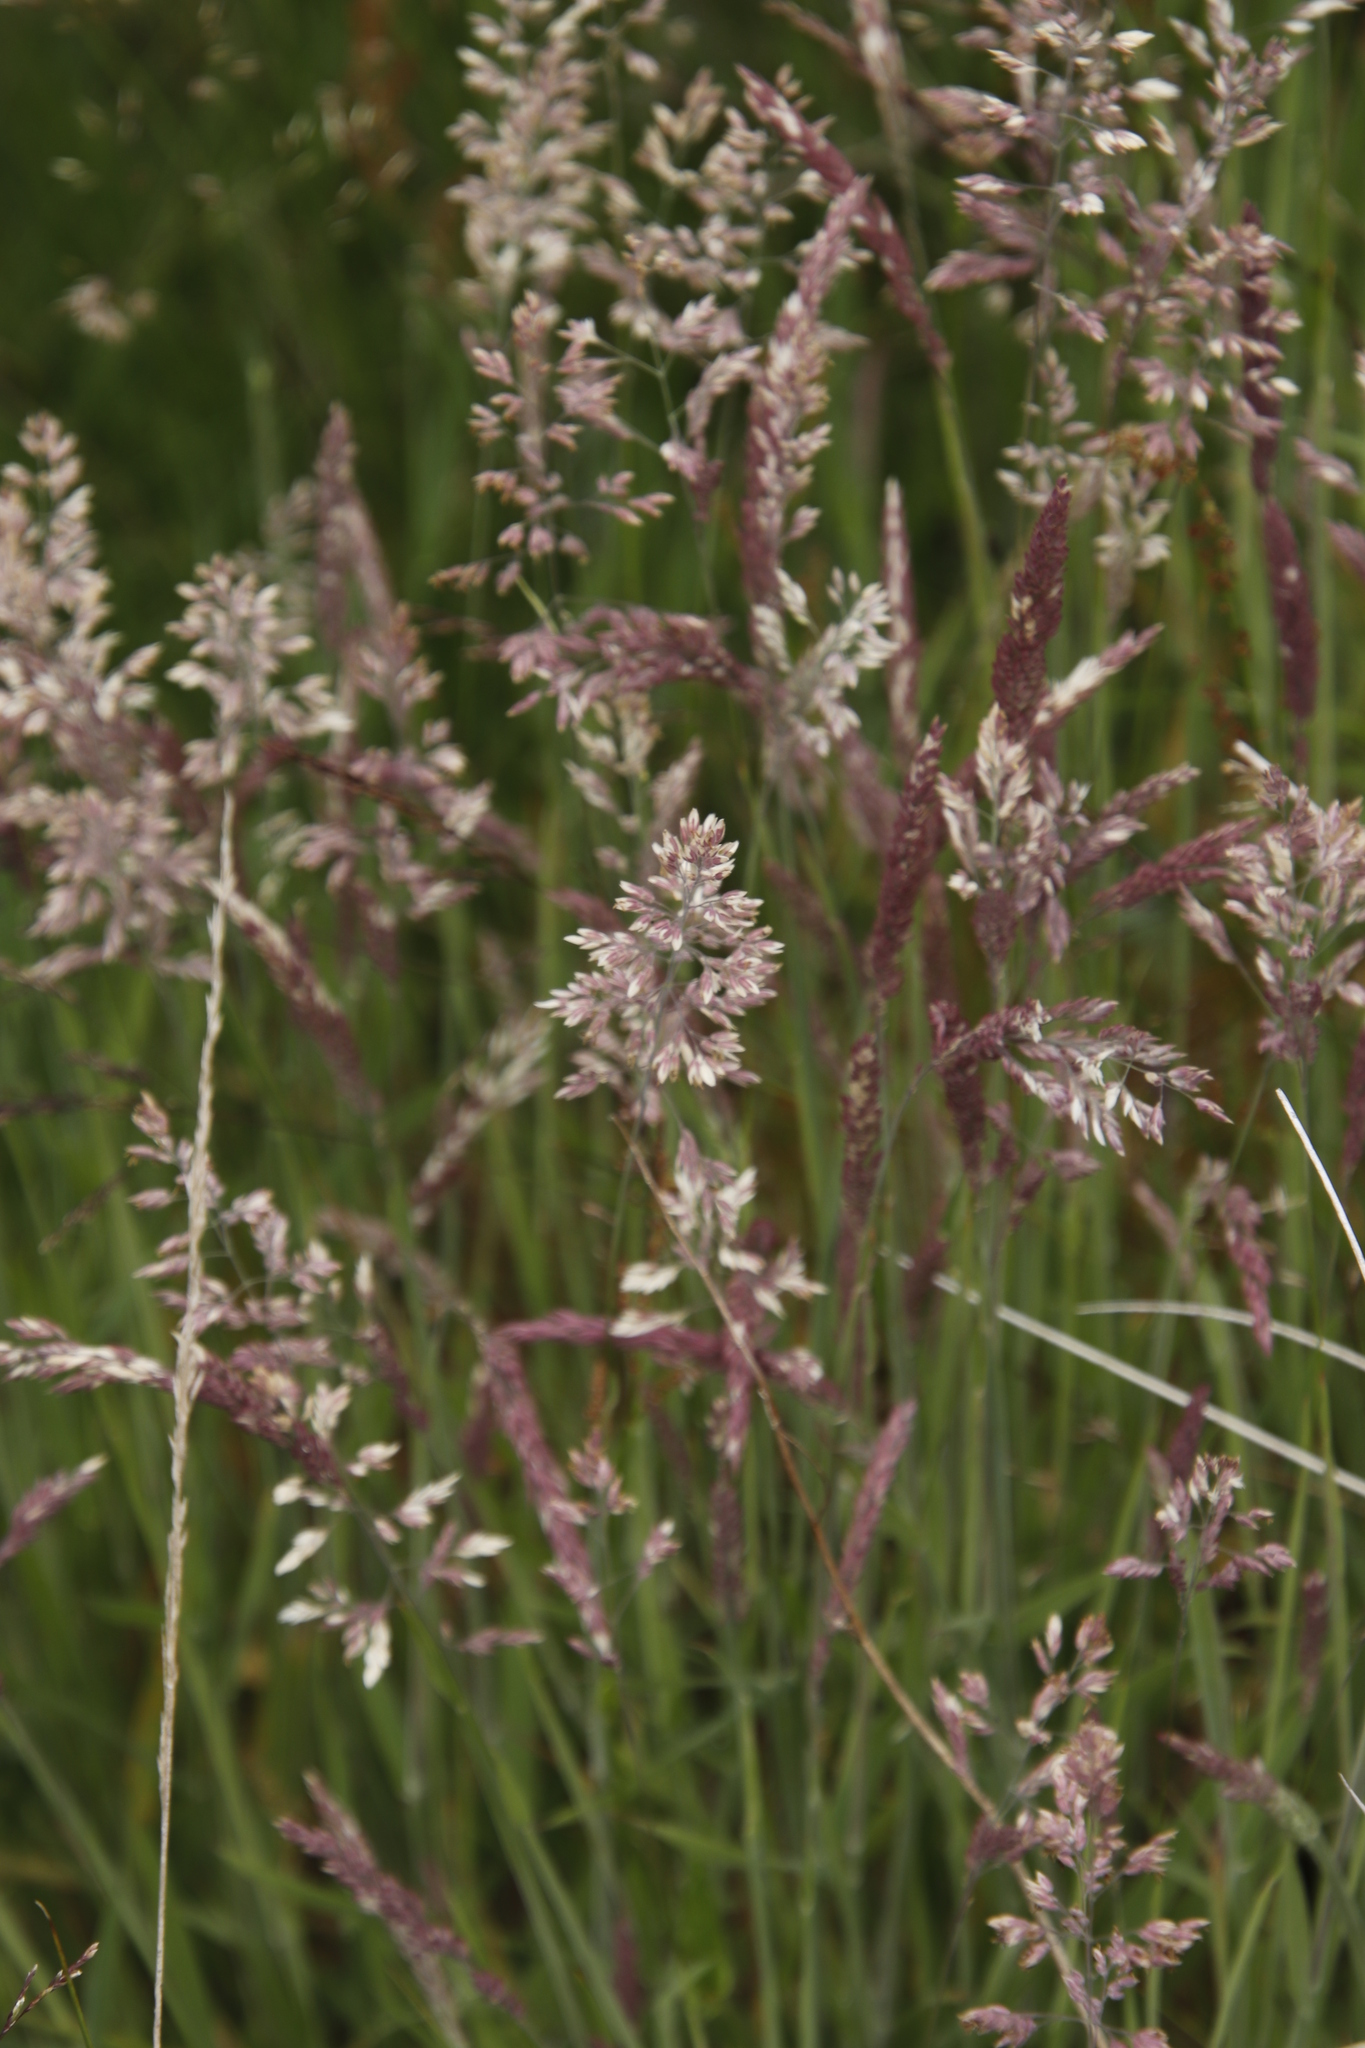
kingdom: Plantae
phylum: Tracheophyta
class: Liliopsida
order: Poales
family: Poaceae
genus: Holcus
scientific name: Holcus lanatus
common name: Yorkshire-fog
